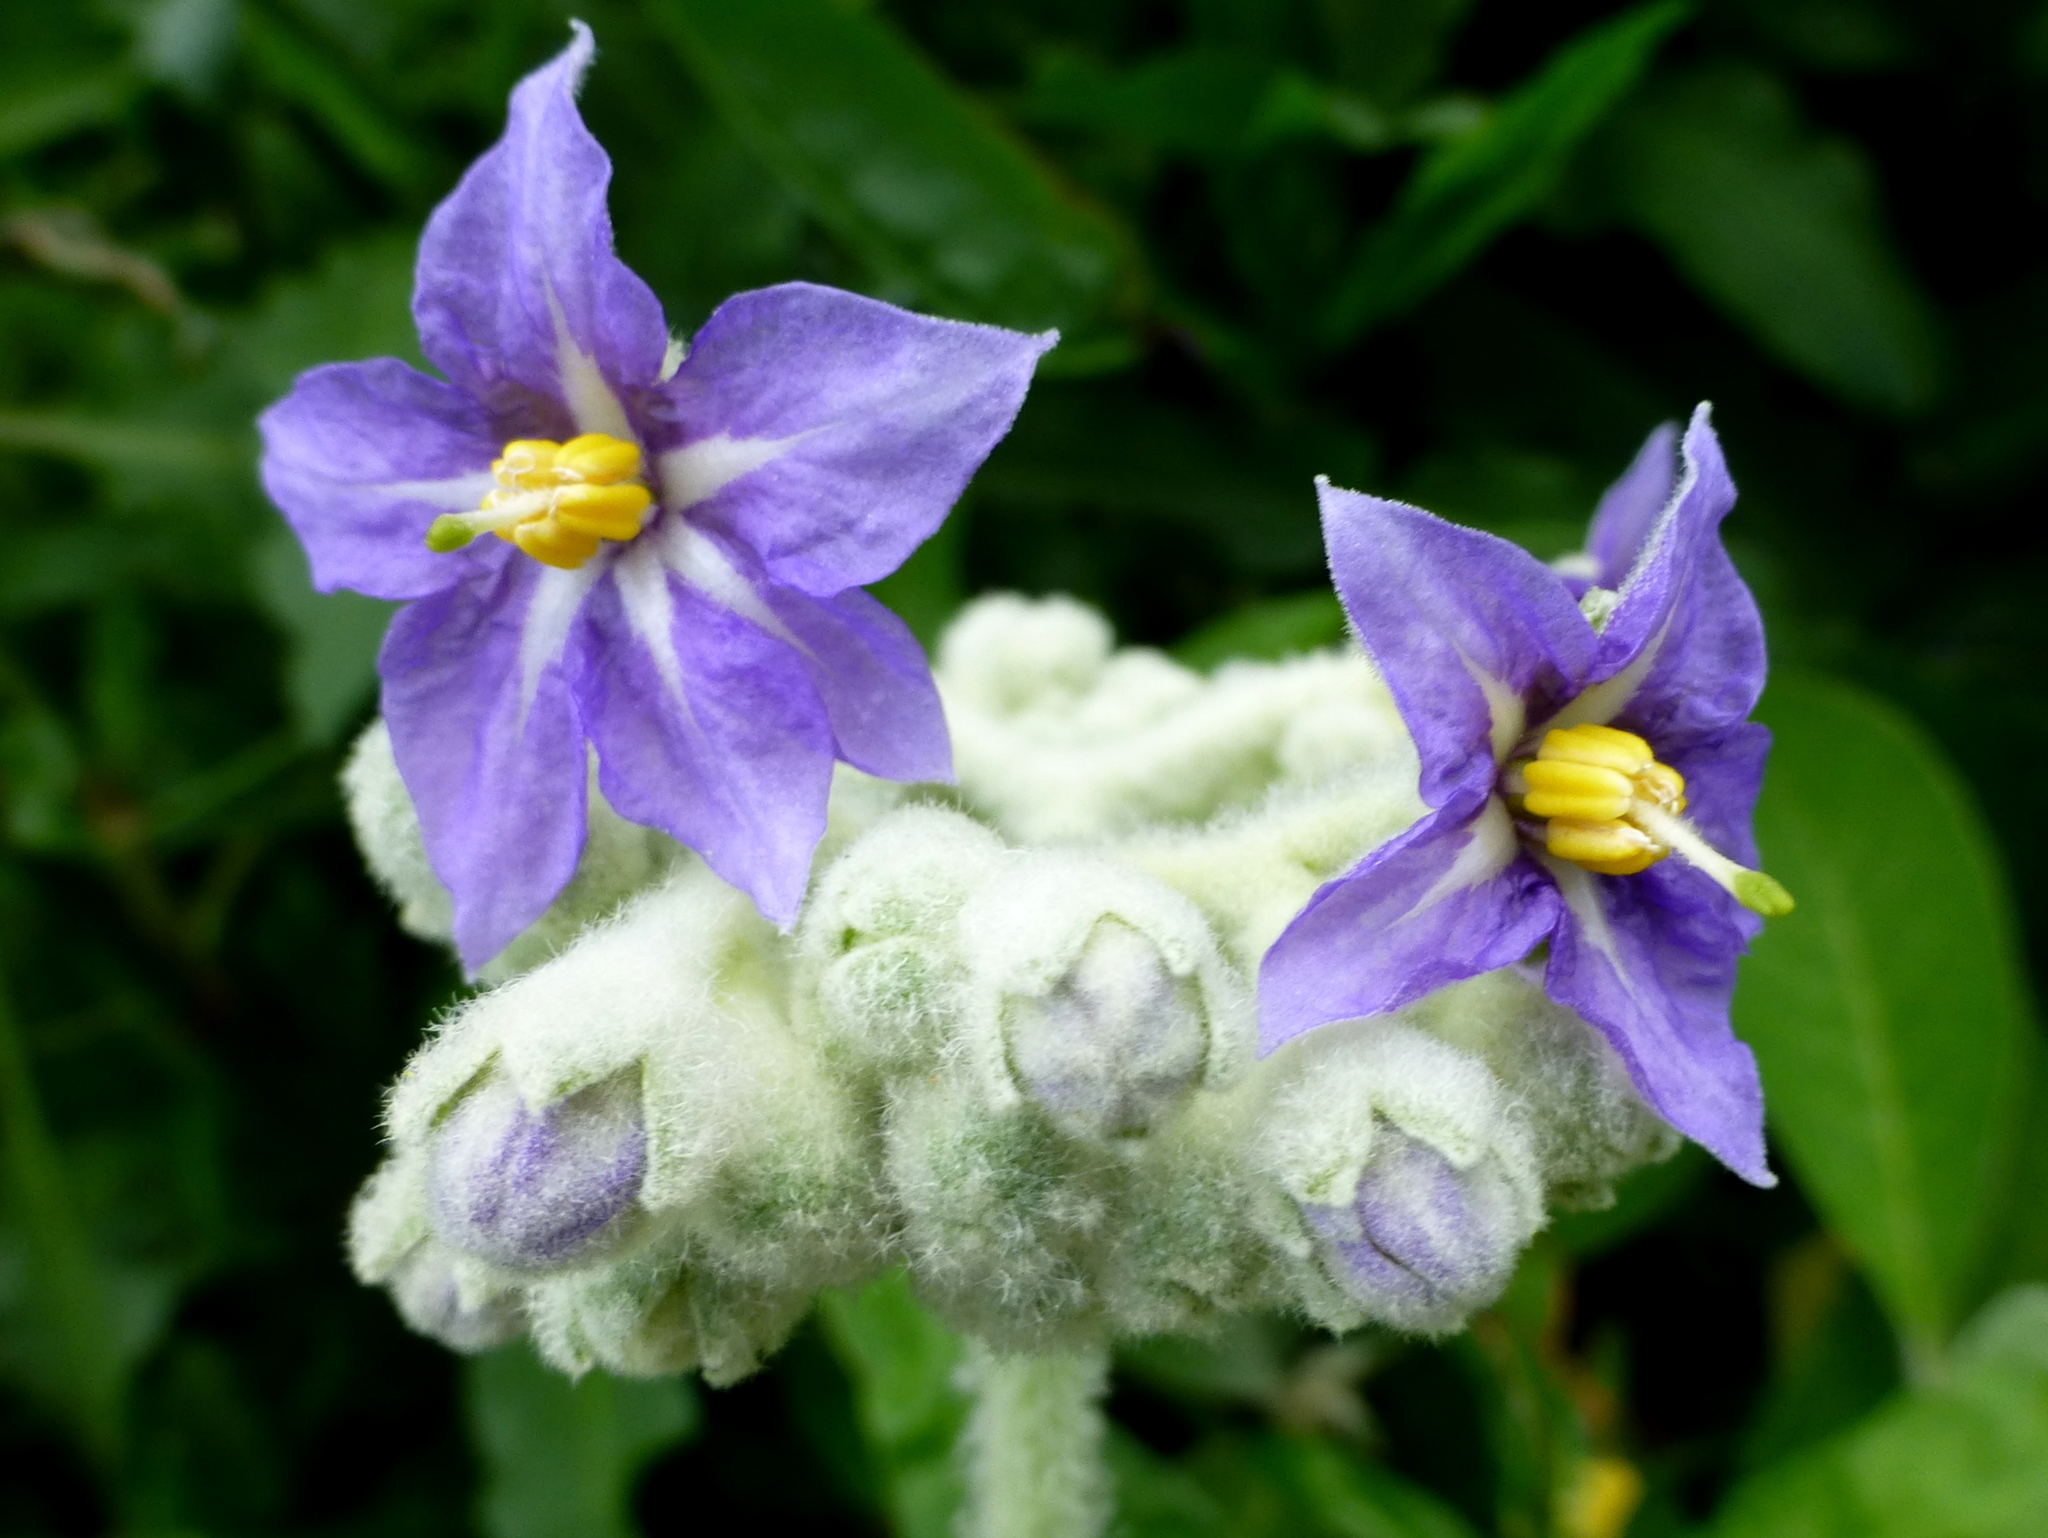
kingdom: Plantae
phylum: Tracheophyta
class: Magnoliopsida
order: Solanales
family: Solanaceae
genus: Solanum
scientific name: Solanum mauritianum
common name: Earleaf nightshade
